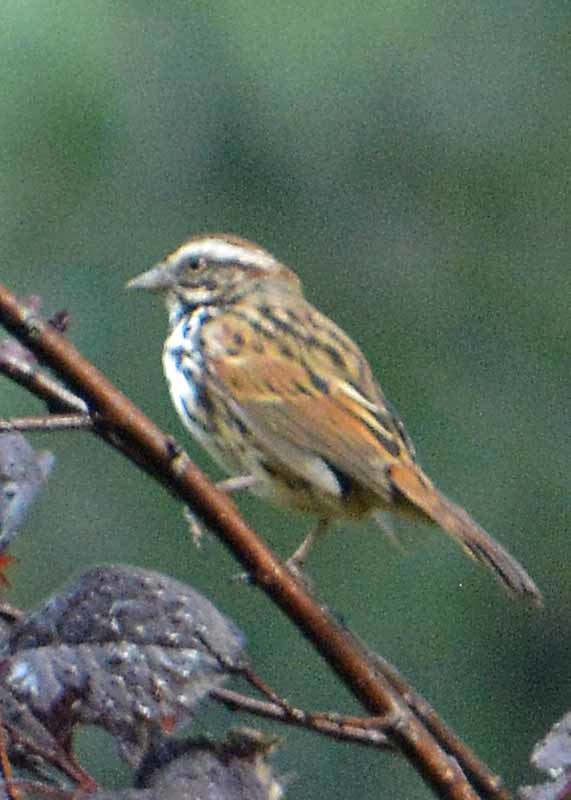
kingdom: Animalia
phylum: Chordata
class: Aves
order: Passeriformes
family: Passerellidae
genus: Melospiza
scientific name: Melospiza melodia
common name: Song sparrow
